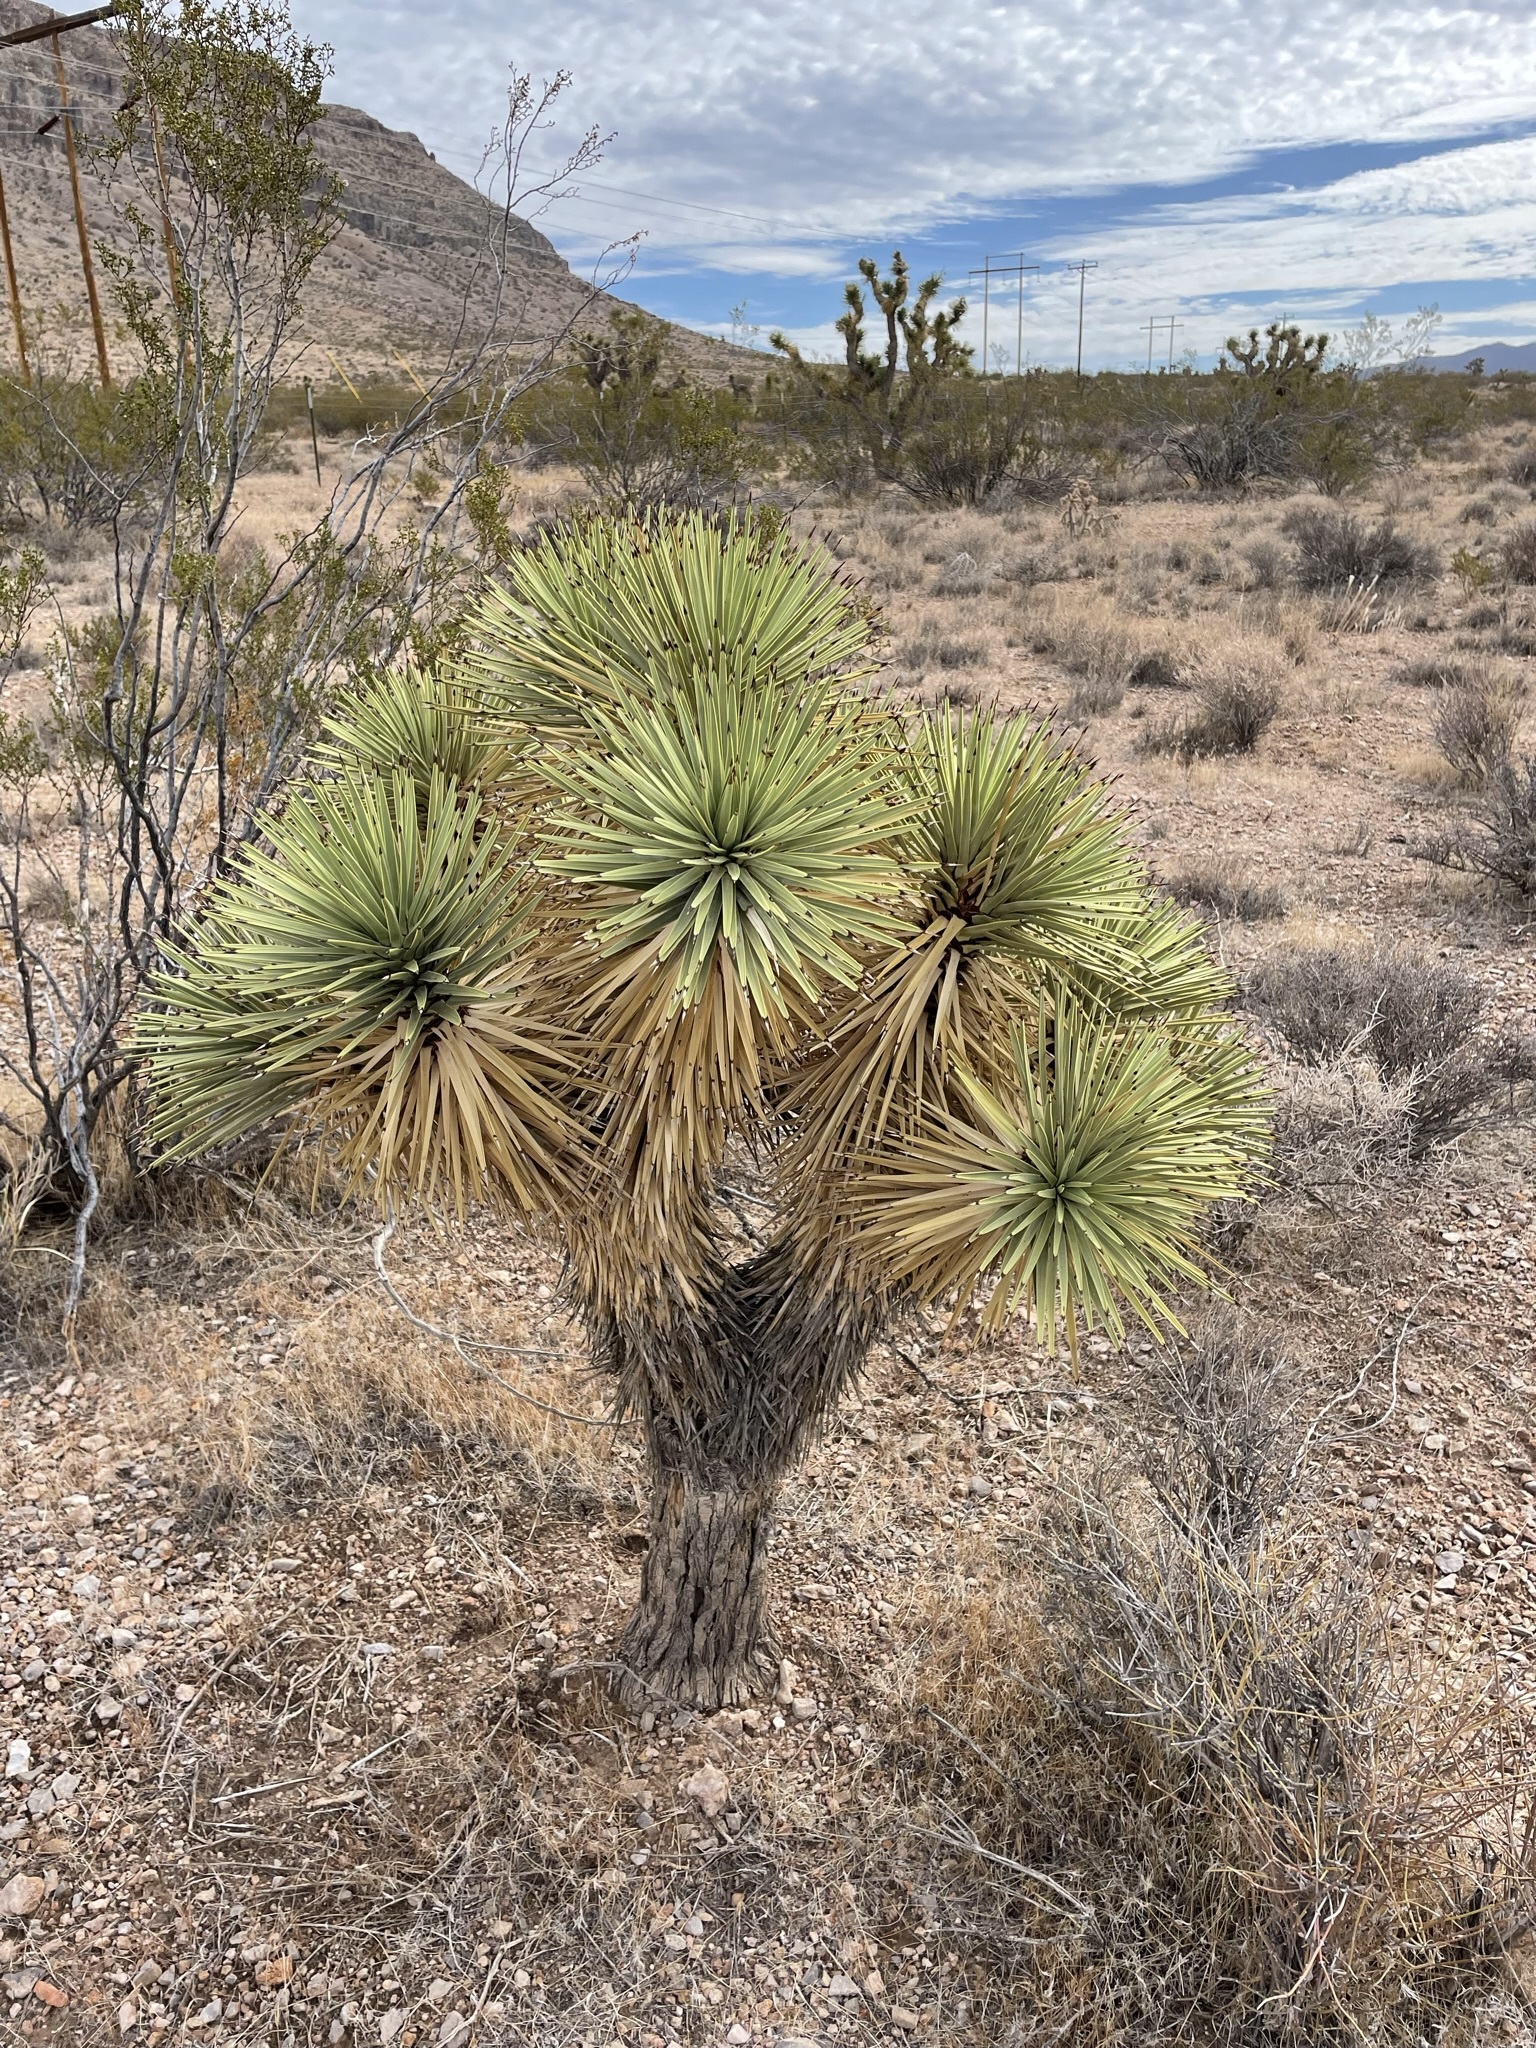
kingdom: Plantae
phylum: Tracheophyta
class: Liliopsida
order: Asparagales
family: Asparagaceae
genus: Yucca
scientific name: Yucca brevifolia
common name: Joshua tree
